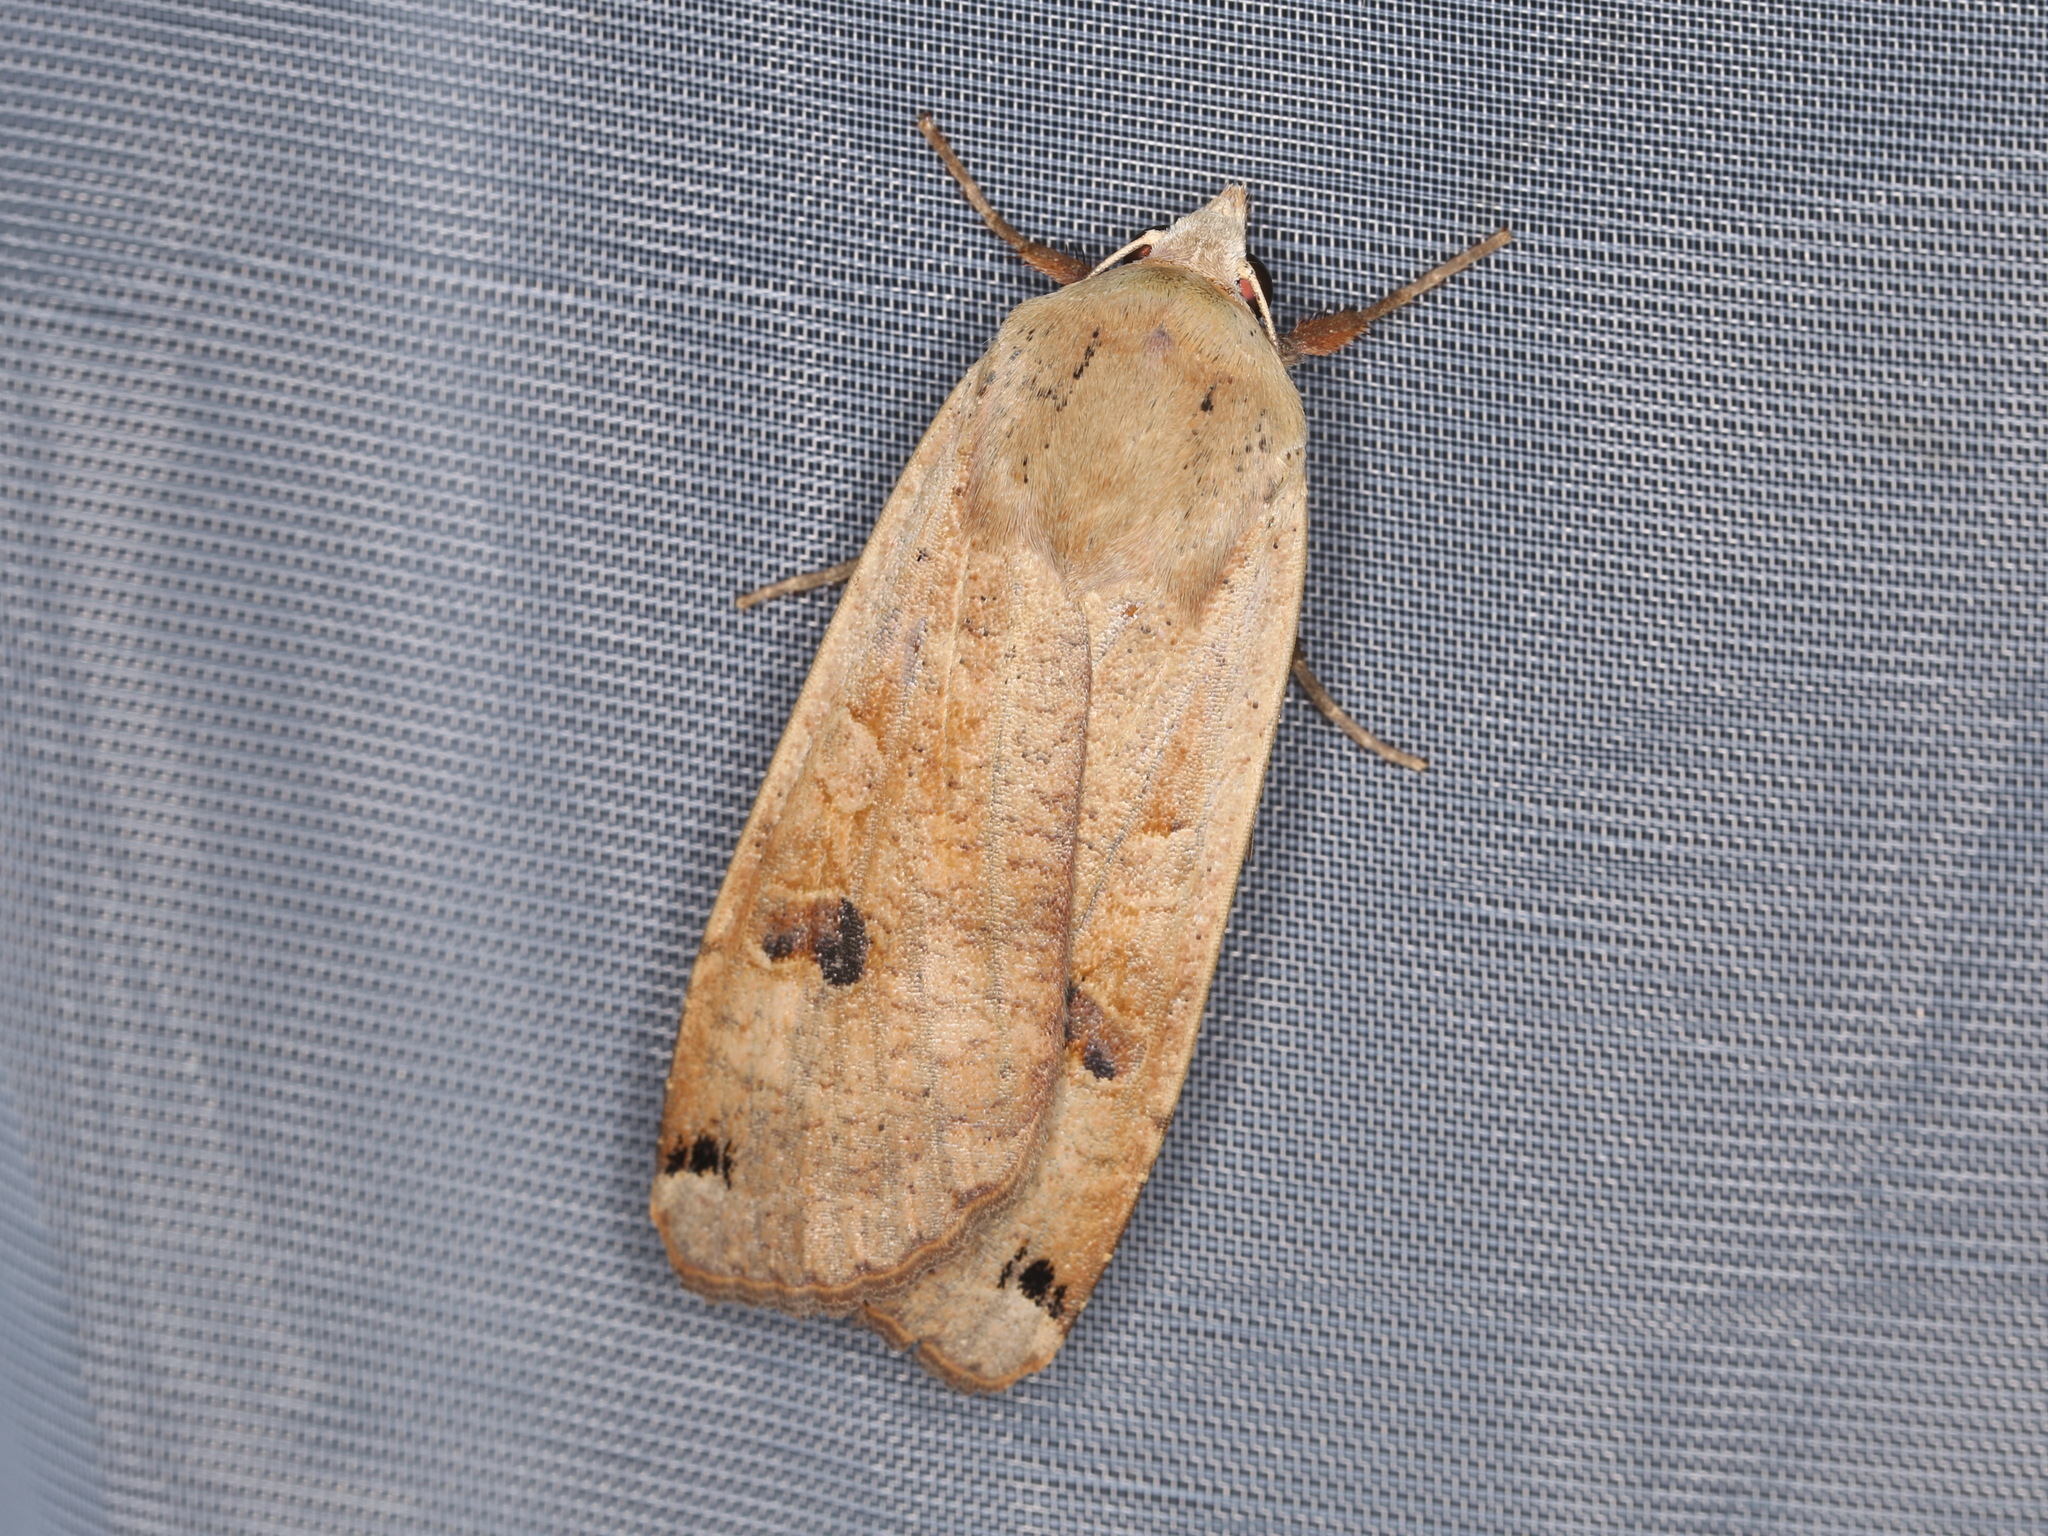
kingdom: Animalia
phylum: Arthropoda
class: Insecta
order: Lepidoptera
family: Noctuidae
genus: Noctua
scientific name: Noctua pronuba
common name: Large yellow underwing
